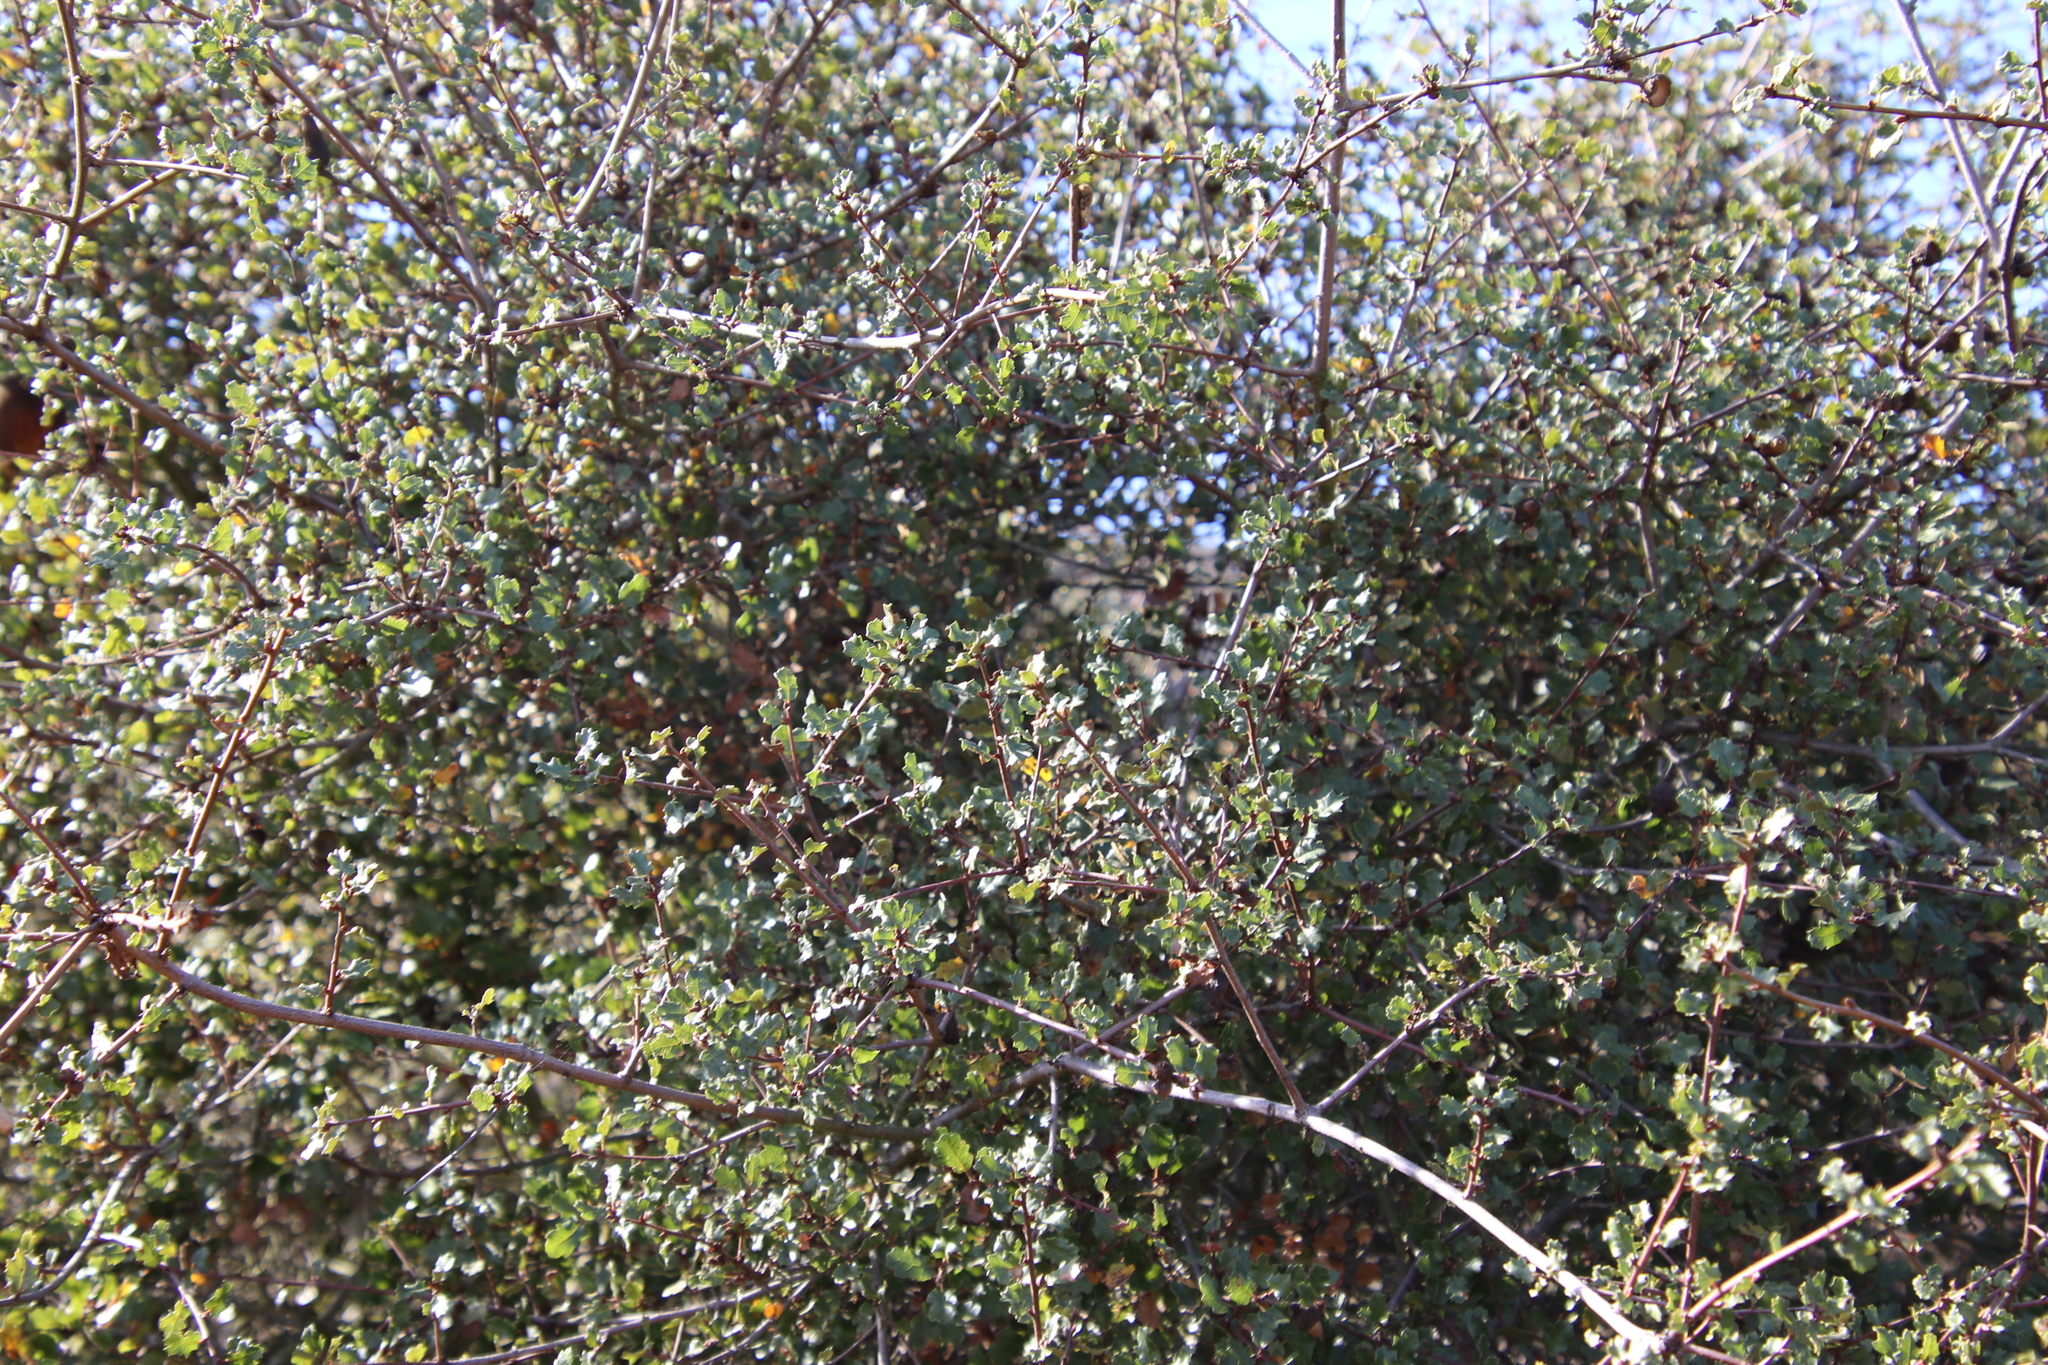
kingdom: Plantae
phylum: Tracheophyta
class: Magnoliopsida
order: Fagales
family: Fagaceae
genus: Quercus
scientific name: Quercus dumosa
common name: Coastal sage scrub oak
